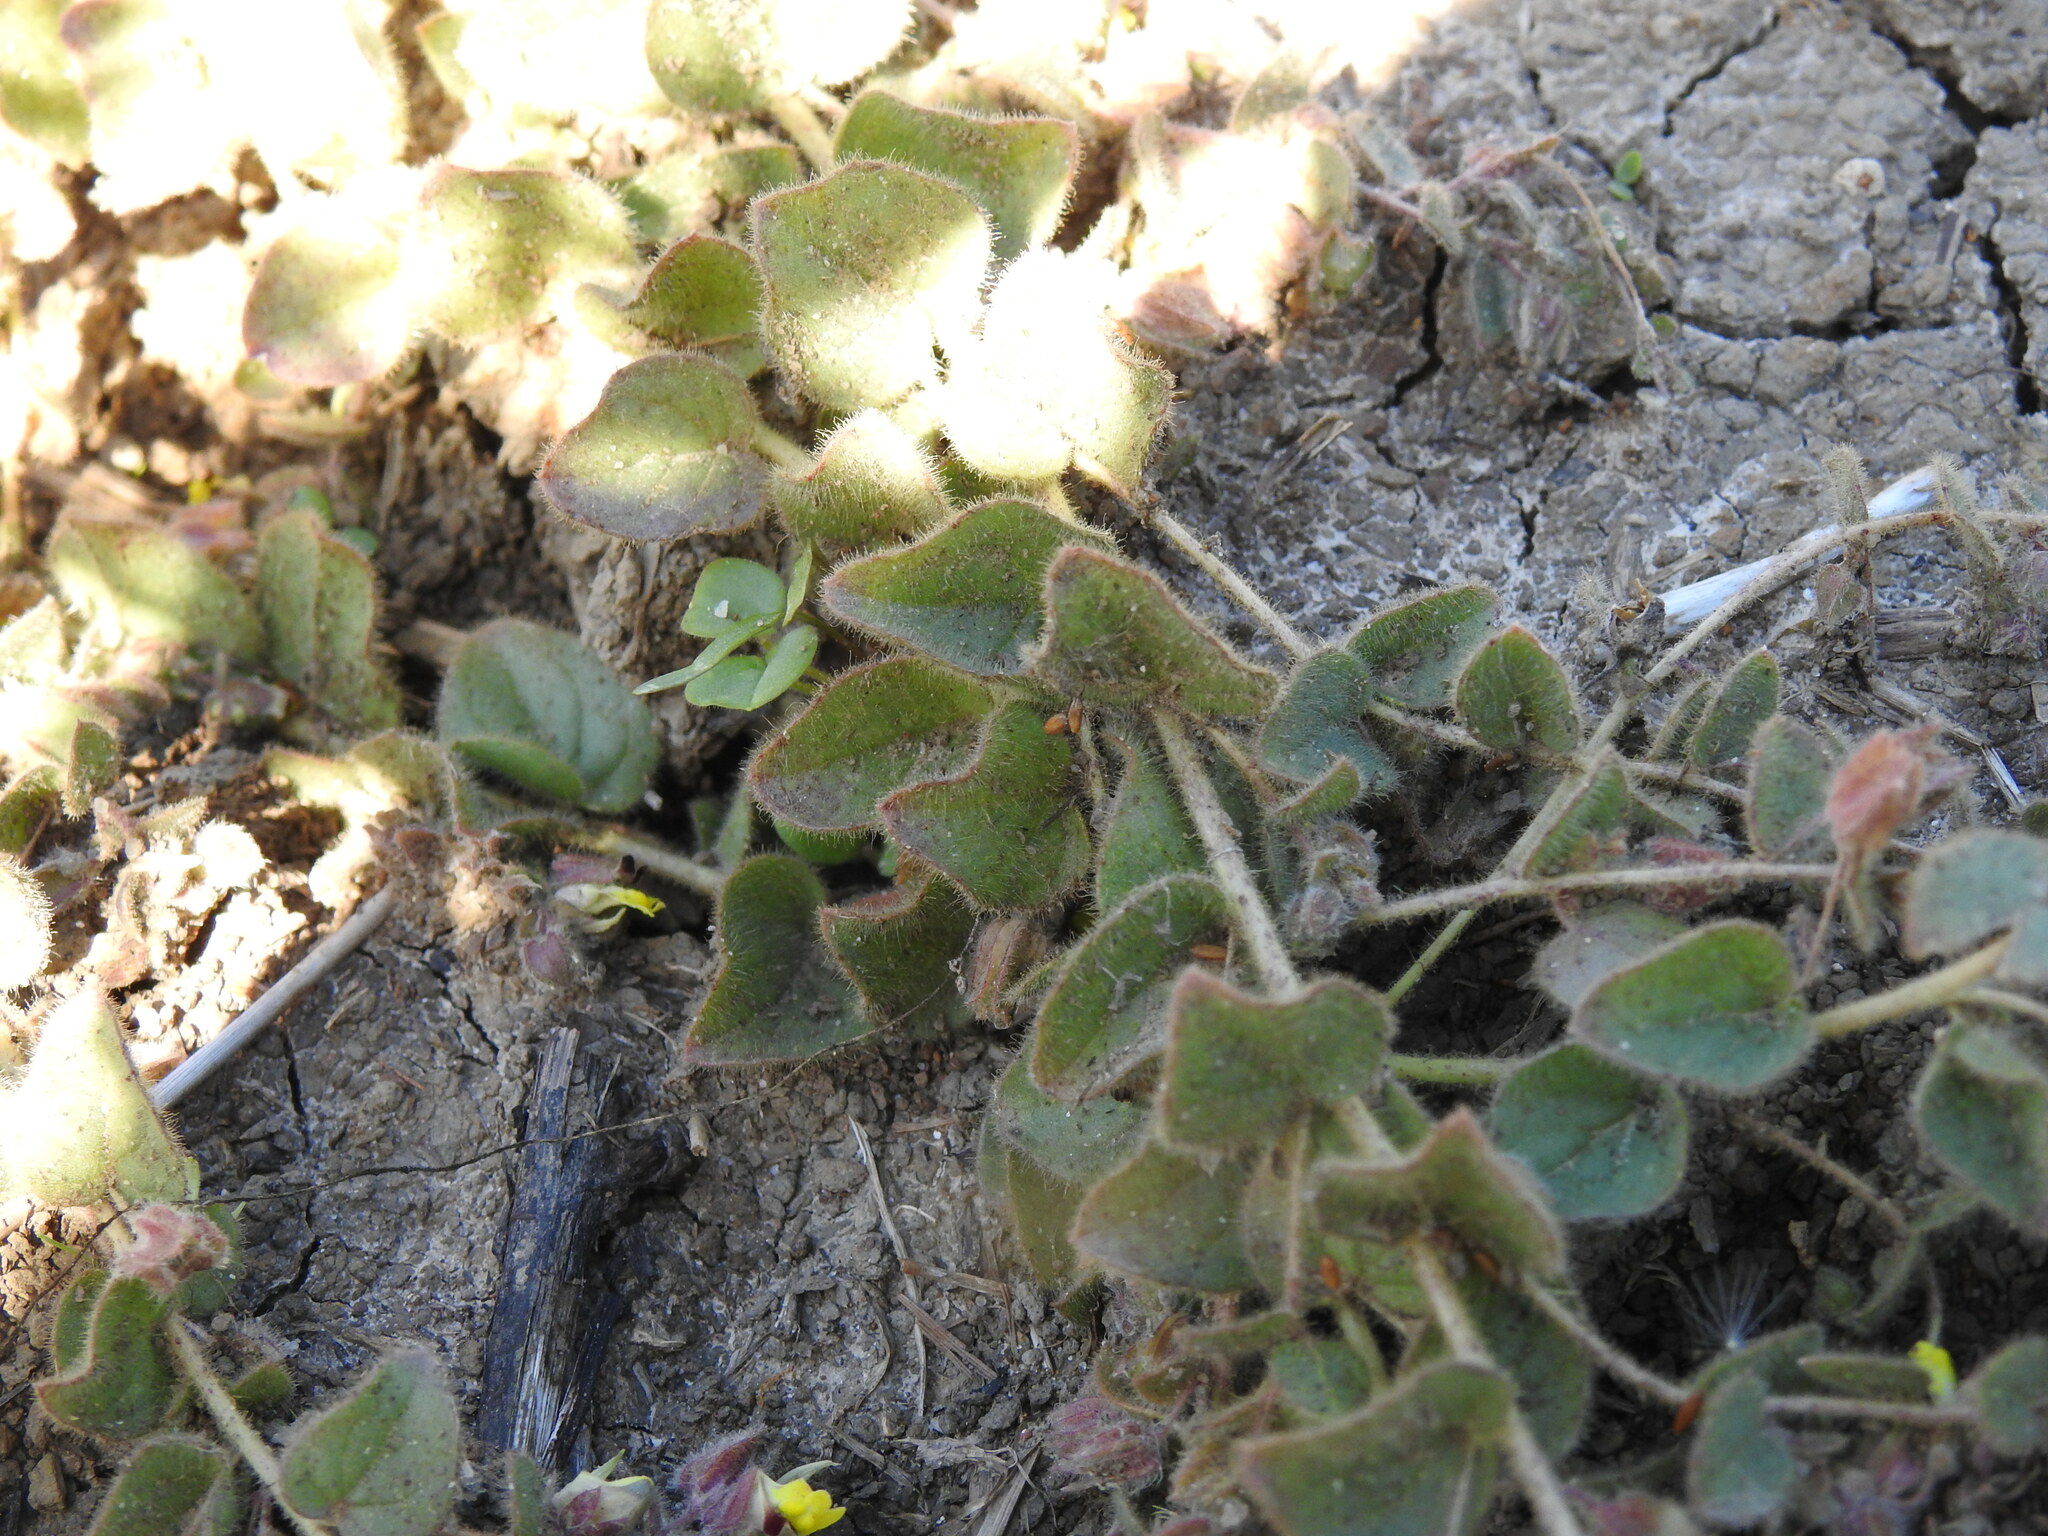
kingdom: Plantae
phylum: Tracheophyta
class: Magnoliopsida
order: Lamiales
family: Plantaginaceae
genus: Kickxia
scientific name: Kickxia spuria
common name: Round-leaved fluellen
